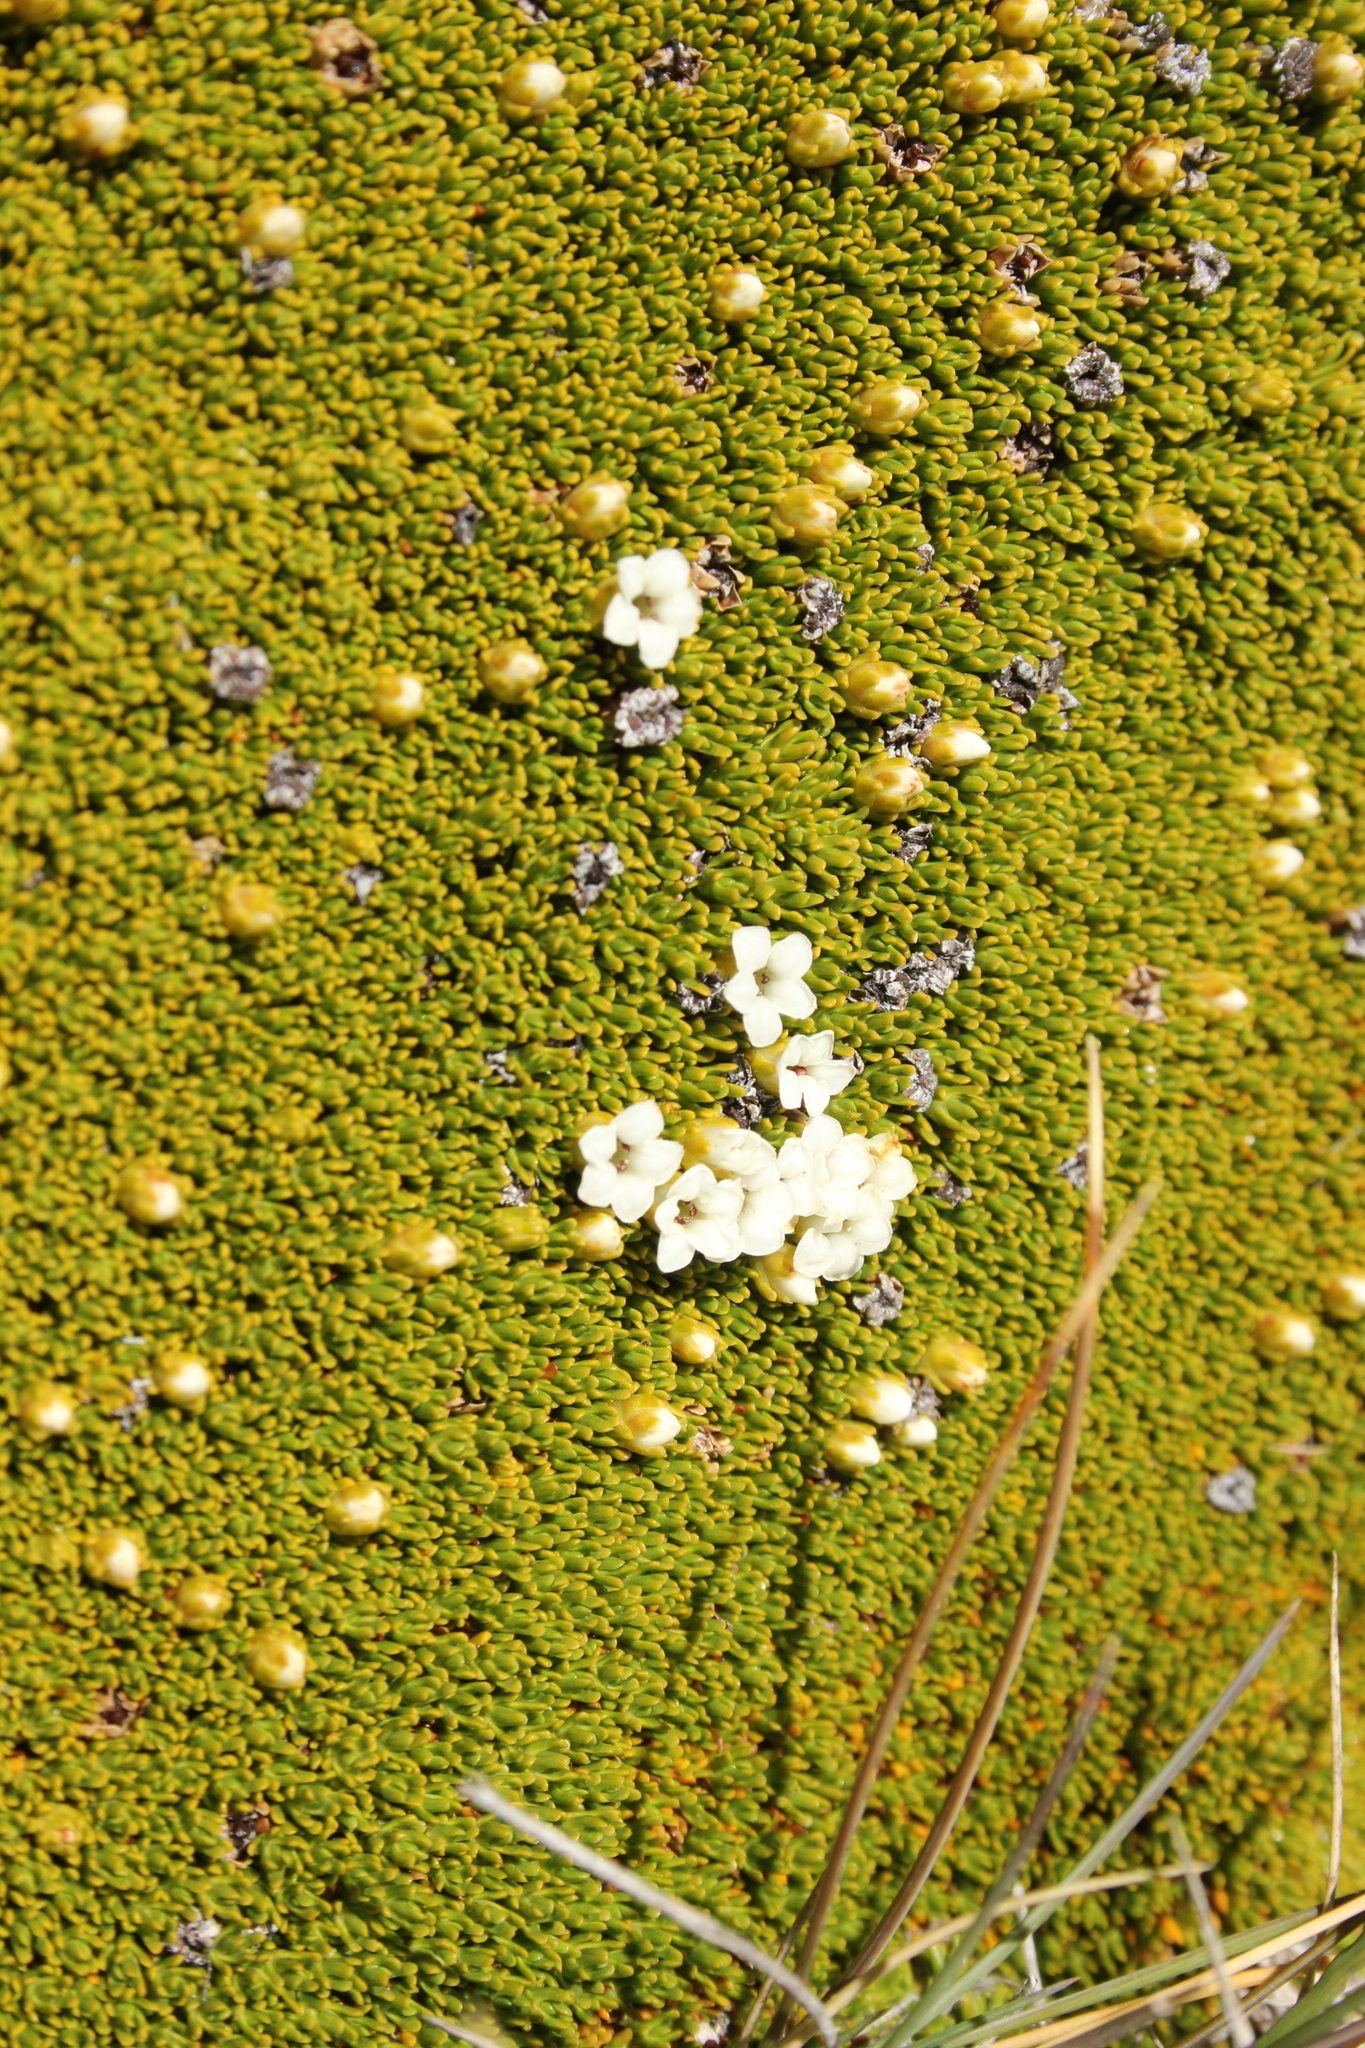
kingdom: Plantae
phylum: Tracheophyta
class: Magnoliopsida
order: Ericales
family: Ericaceae
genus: Dracophyllum
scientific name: Dracophyllum muscoides
